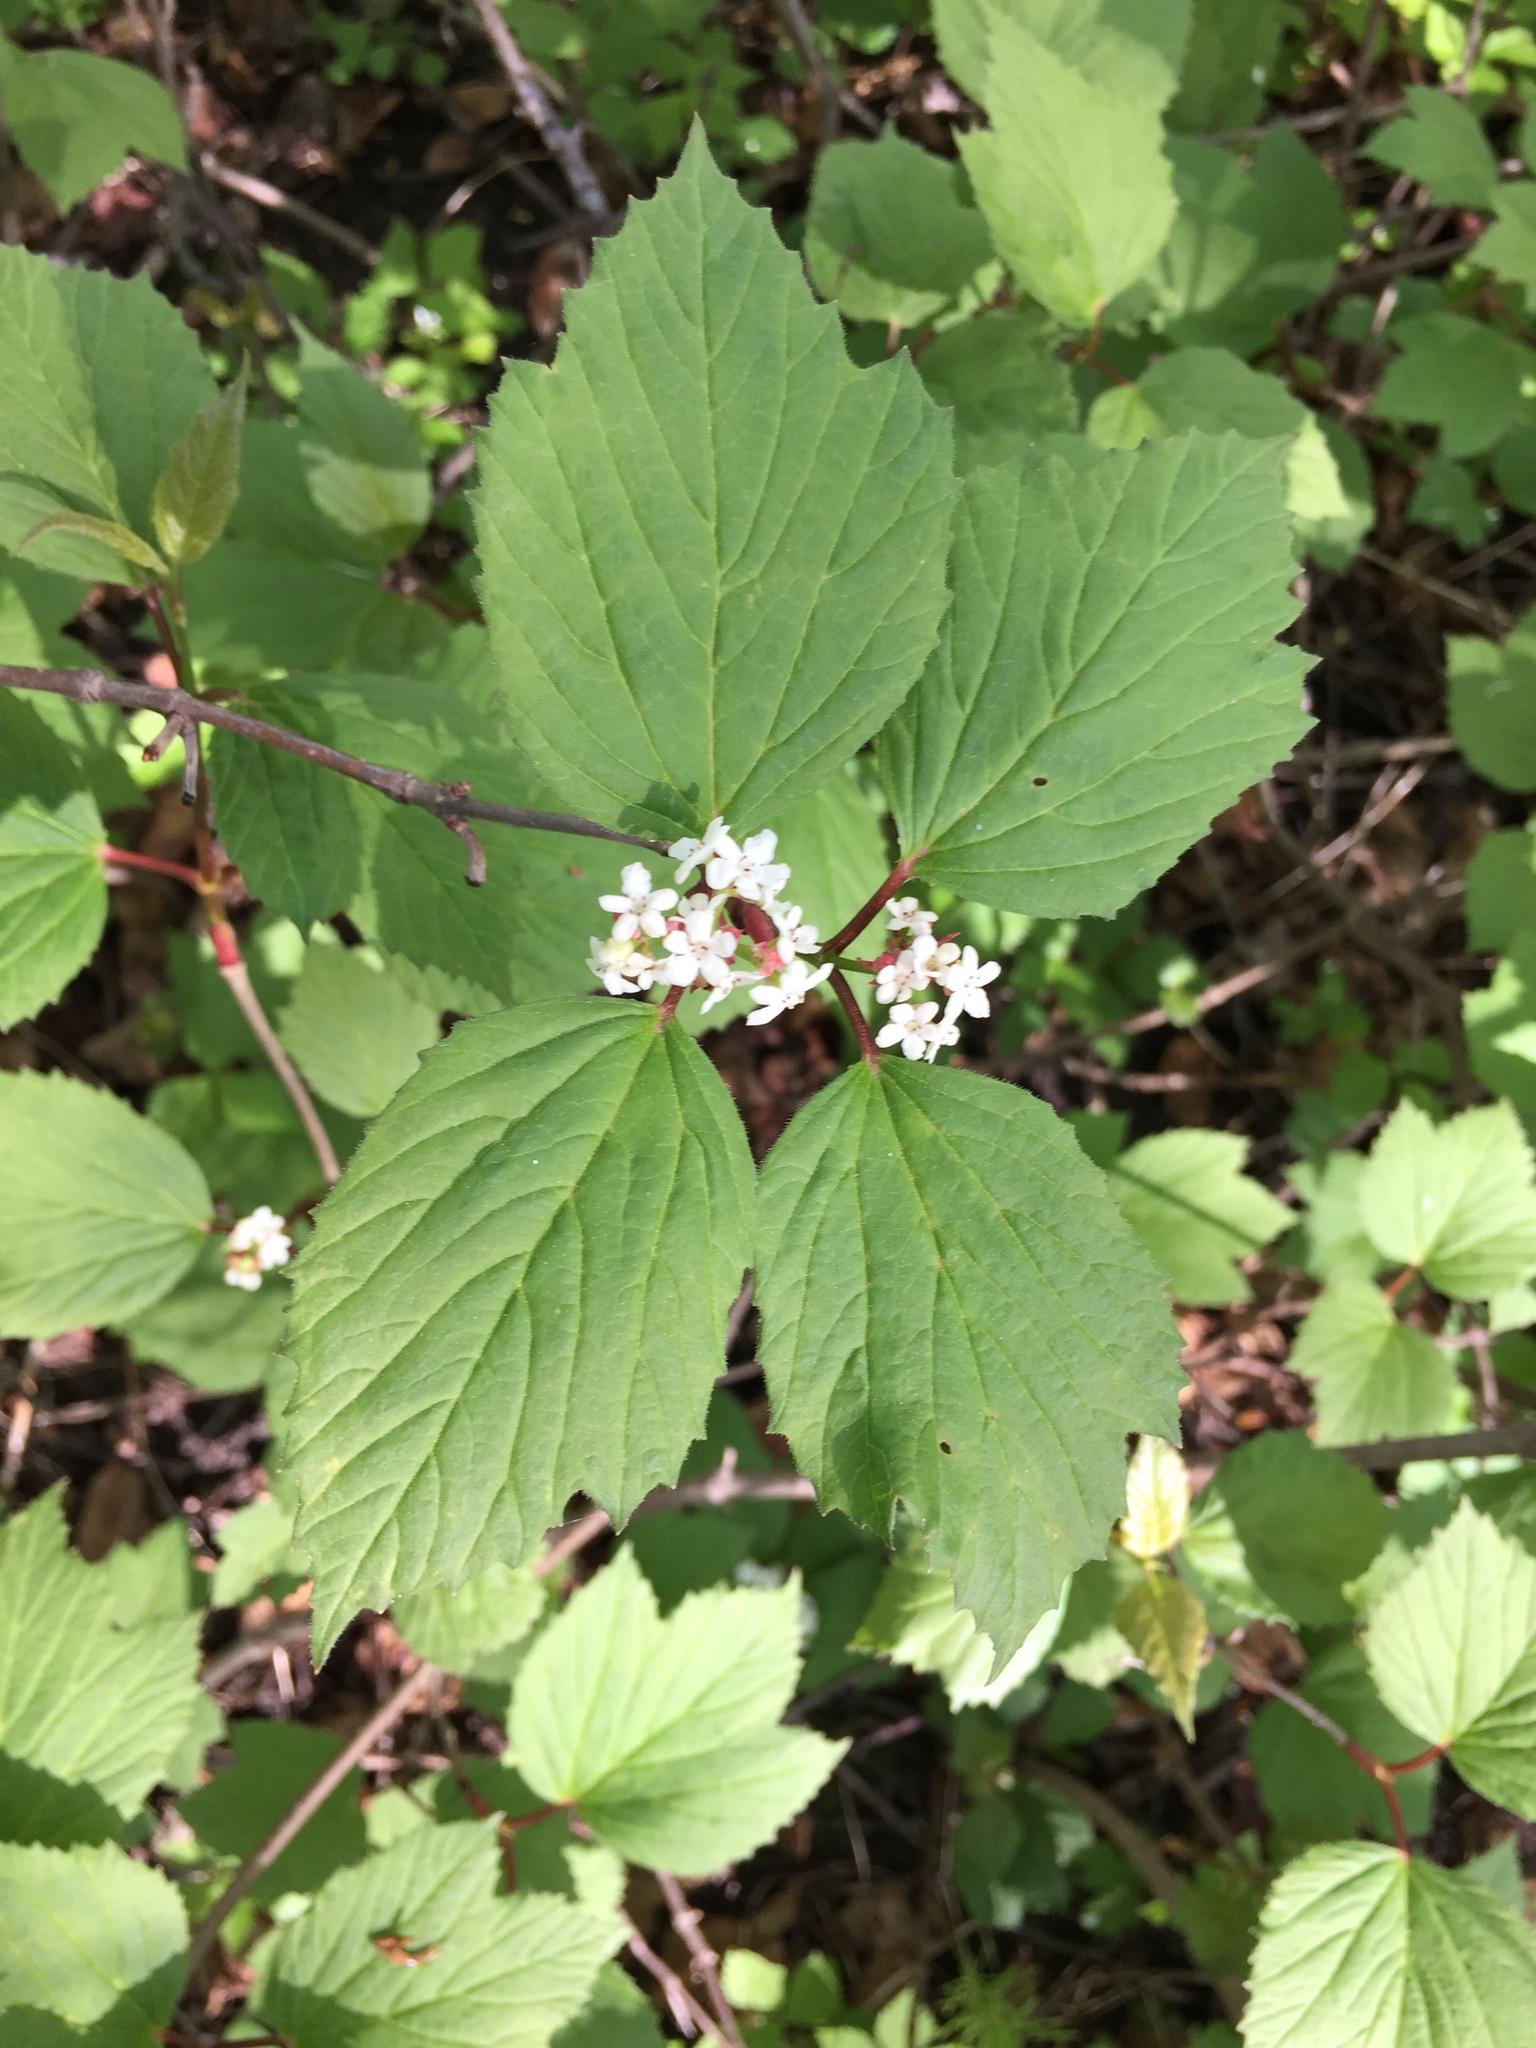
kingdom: Plantae
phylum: Tracheophyta
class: Magnoliopsida
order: Dipsacales
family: Viburnaceae
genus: Viburnum
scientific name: Viburnum edule
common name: Mooseberry
